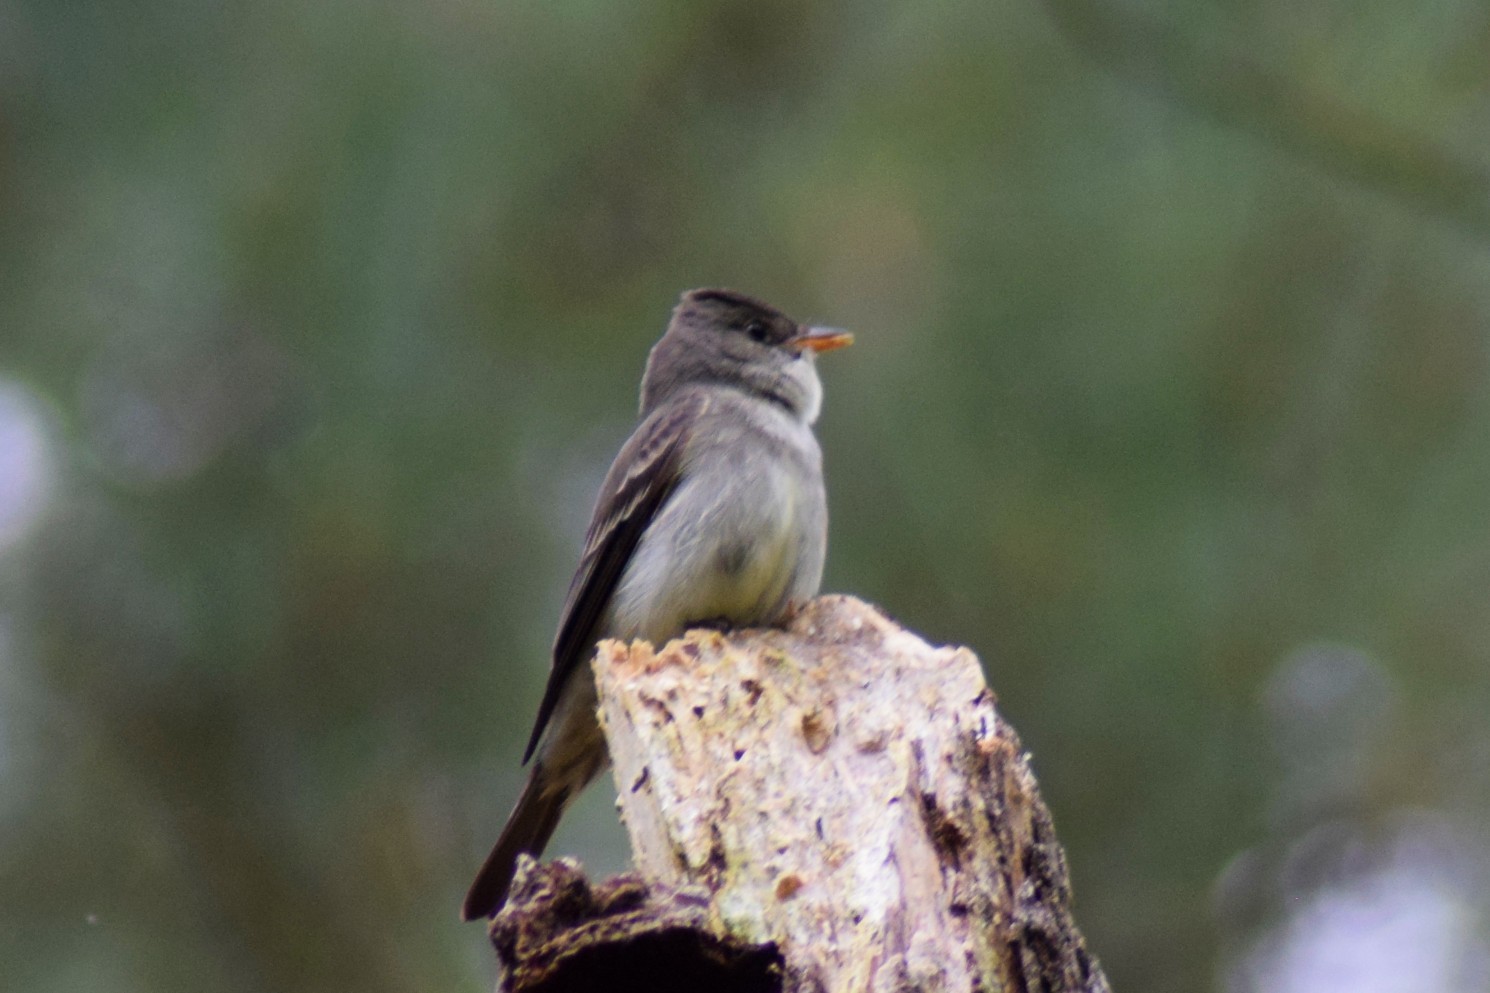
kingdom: Animalia
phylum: Chordata
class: Aves
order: Passeriformes
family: Tyrannidae
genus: Contopus
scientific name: Contopus virens
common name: Eastern wood-pewee
